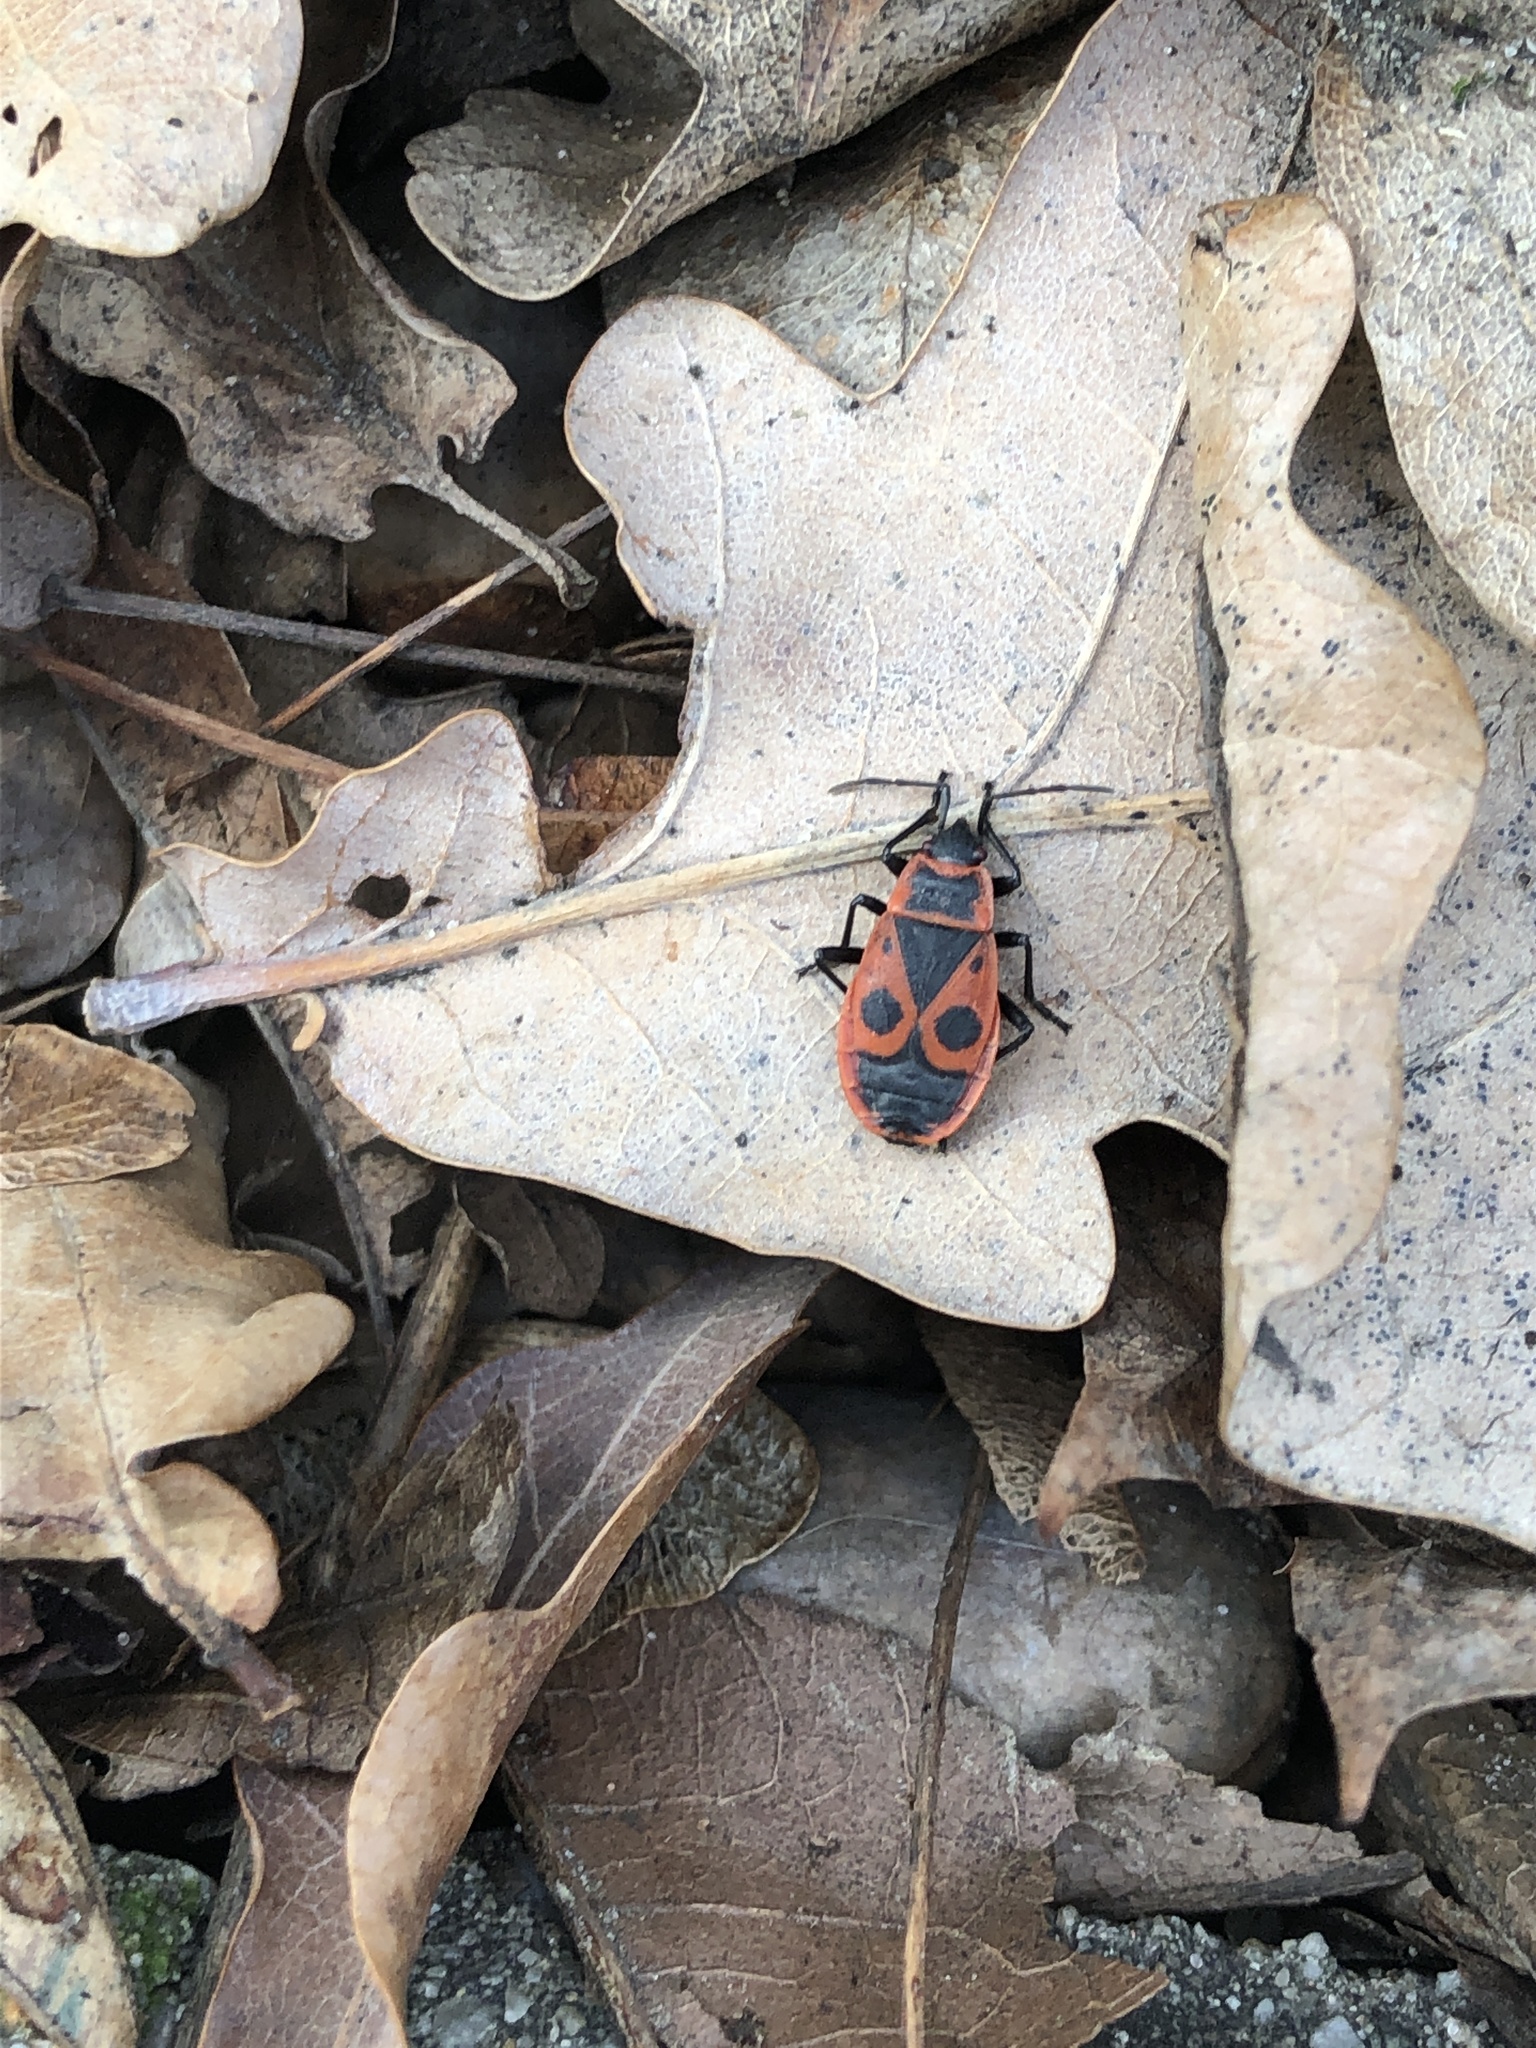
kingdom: Animalia
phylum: Arthropoda
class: Insecta
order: Hemiptera
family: Pyrrhocoridae
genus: Pyrrhocoris
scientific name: Pyrrhocoris apterus
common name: Firebug
